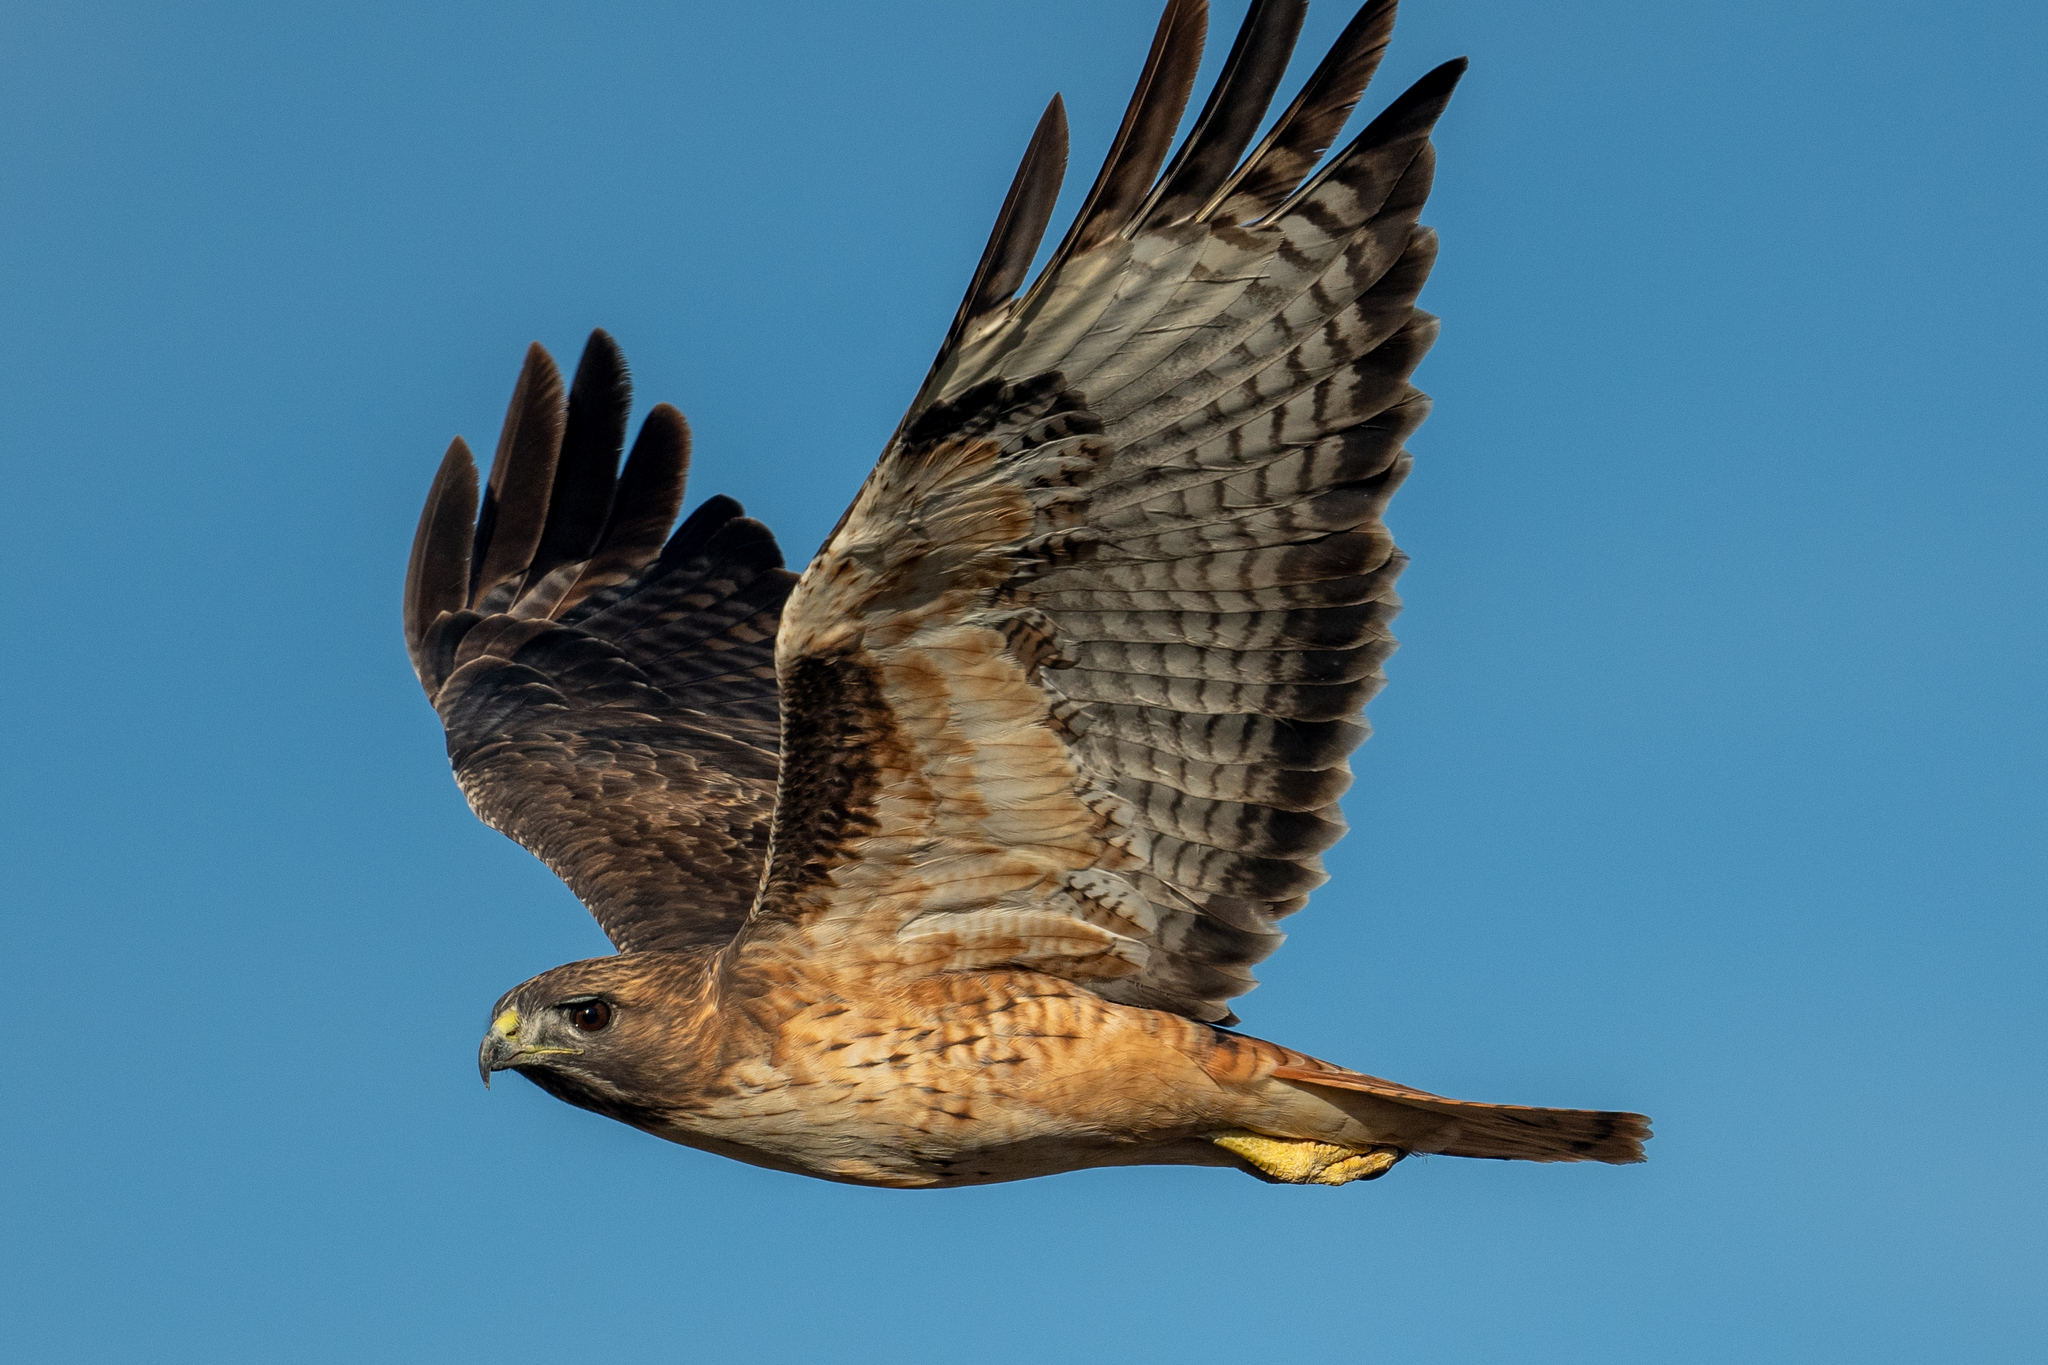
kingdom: Animalia
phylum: Chordata
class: Aves
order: Accipitriformes
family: Accipitridae
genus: Buteo
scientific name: Buteo jamaicensis
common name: Red-tailed hawk
